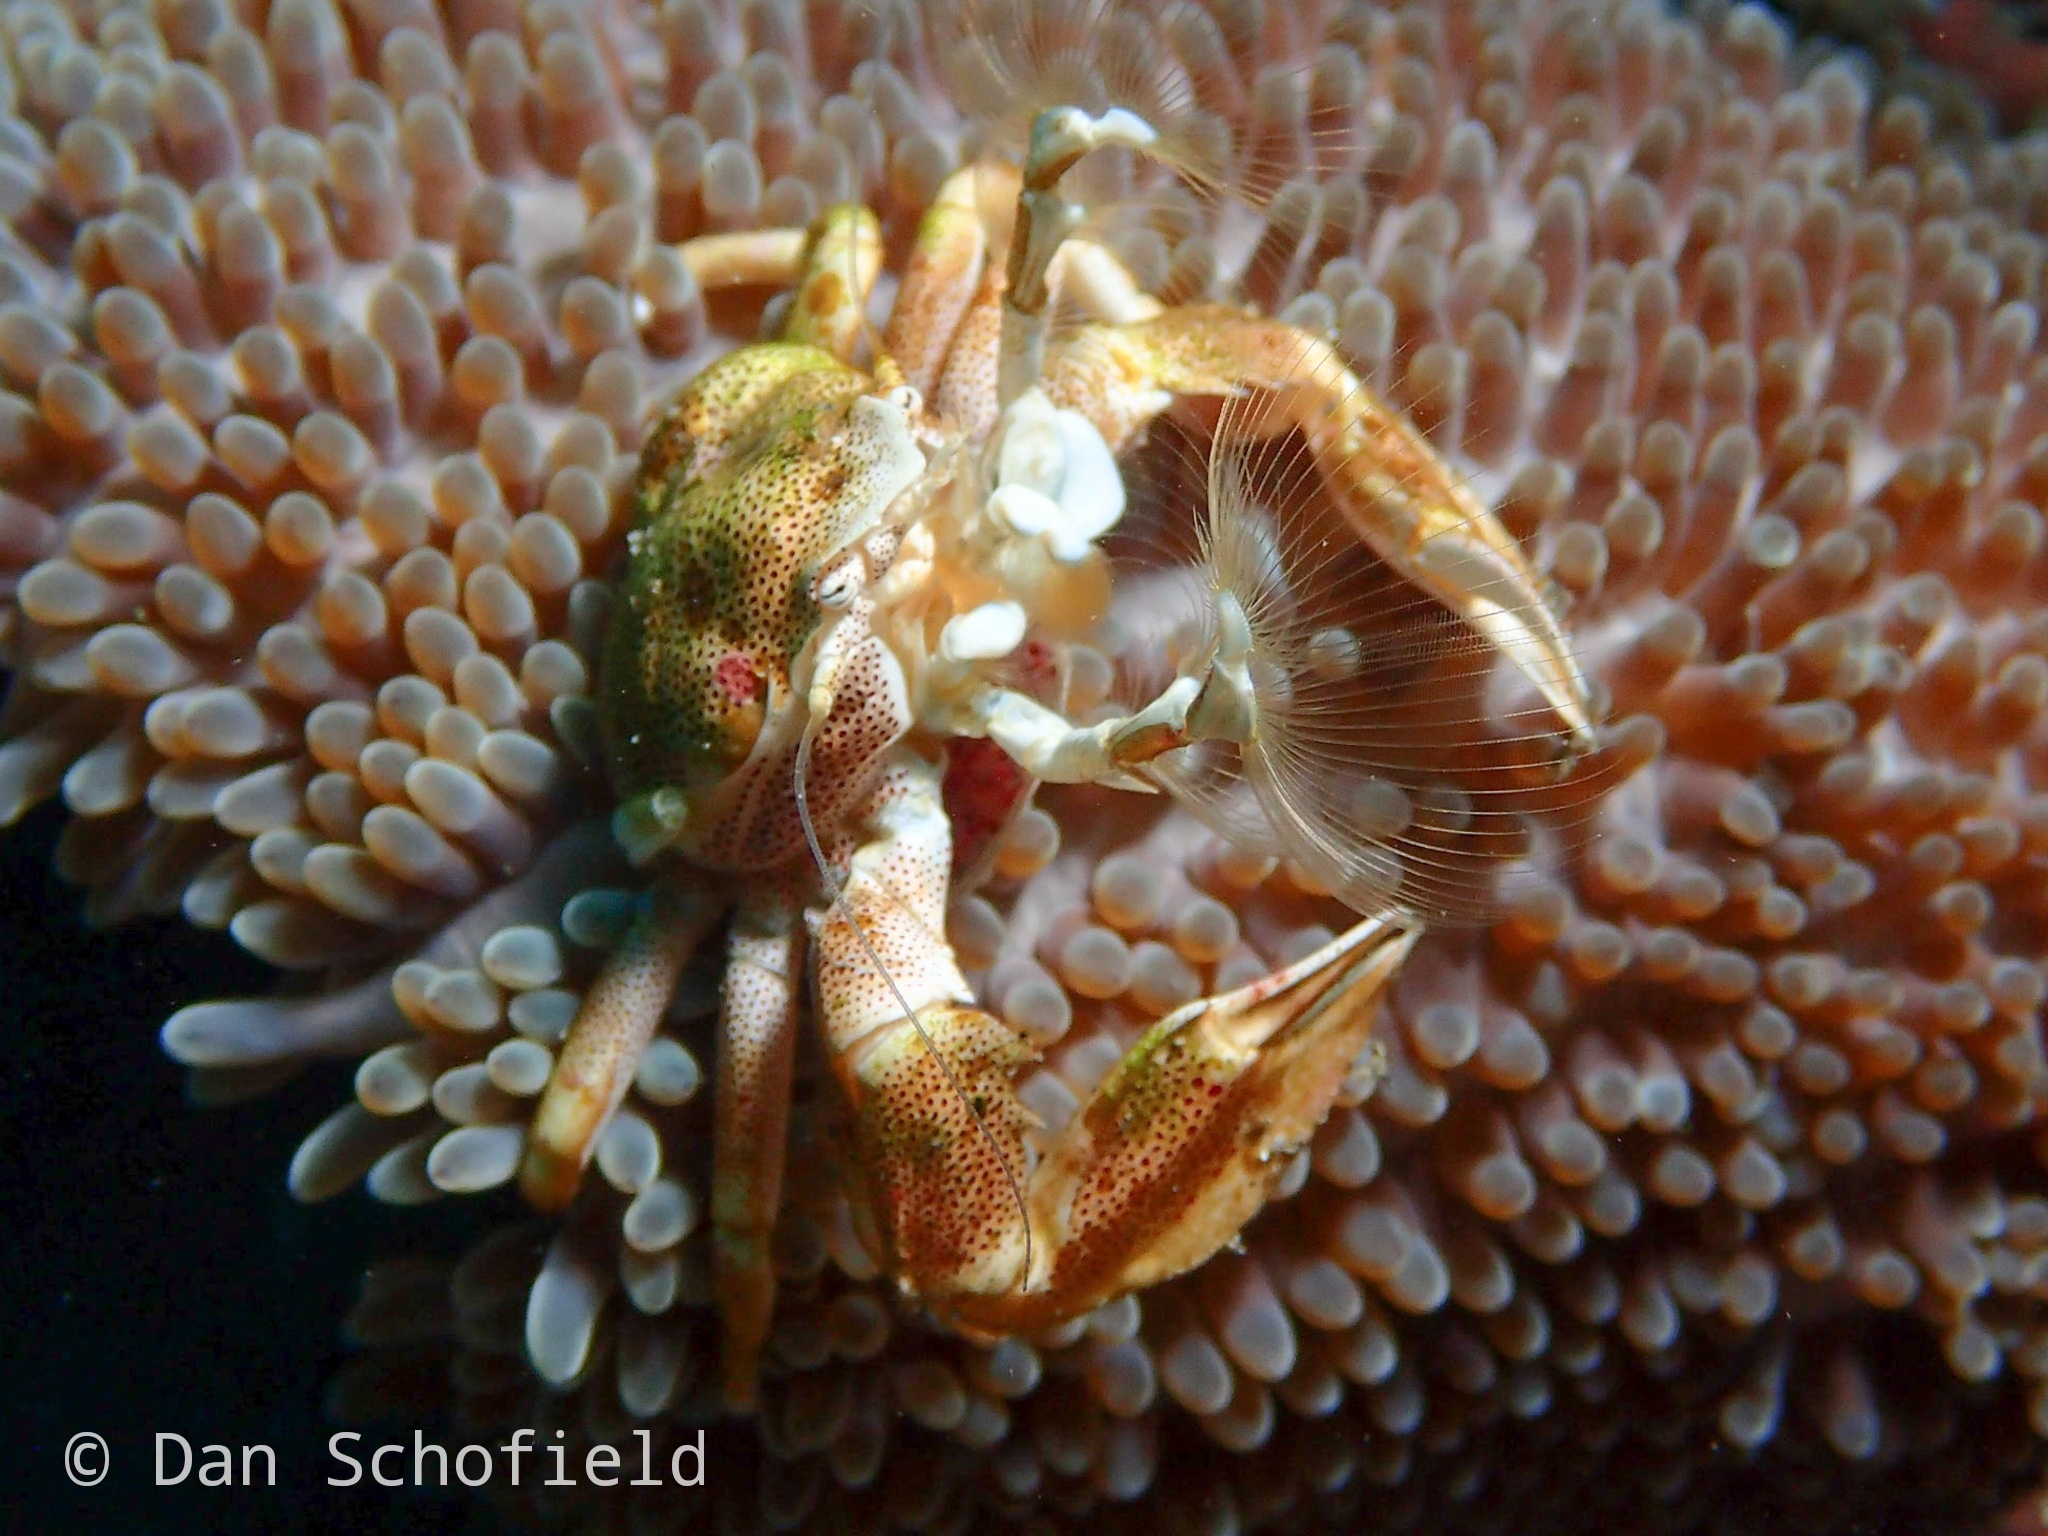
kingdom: Animalia
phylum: Arthropoda
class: Malacostraca
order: Decapoda
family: Porcellanidae
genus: Neopetrolisthes
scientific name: Neopetrolisthes spinatus
